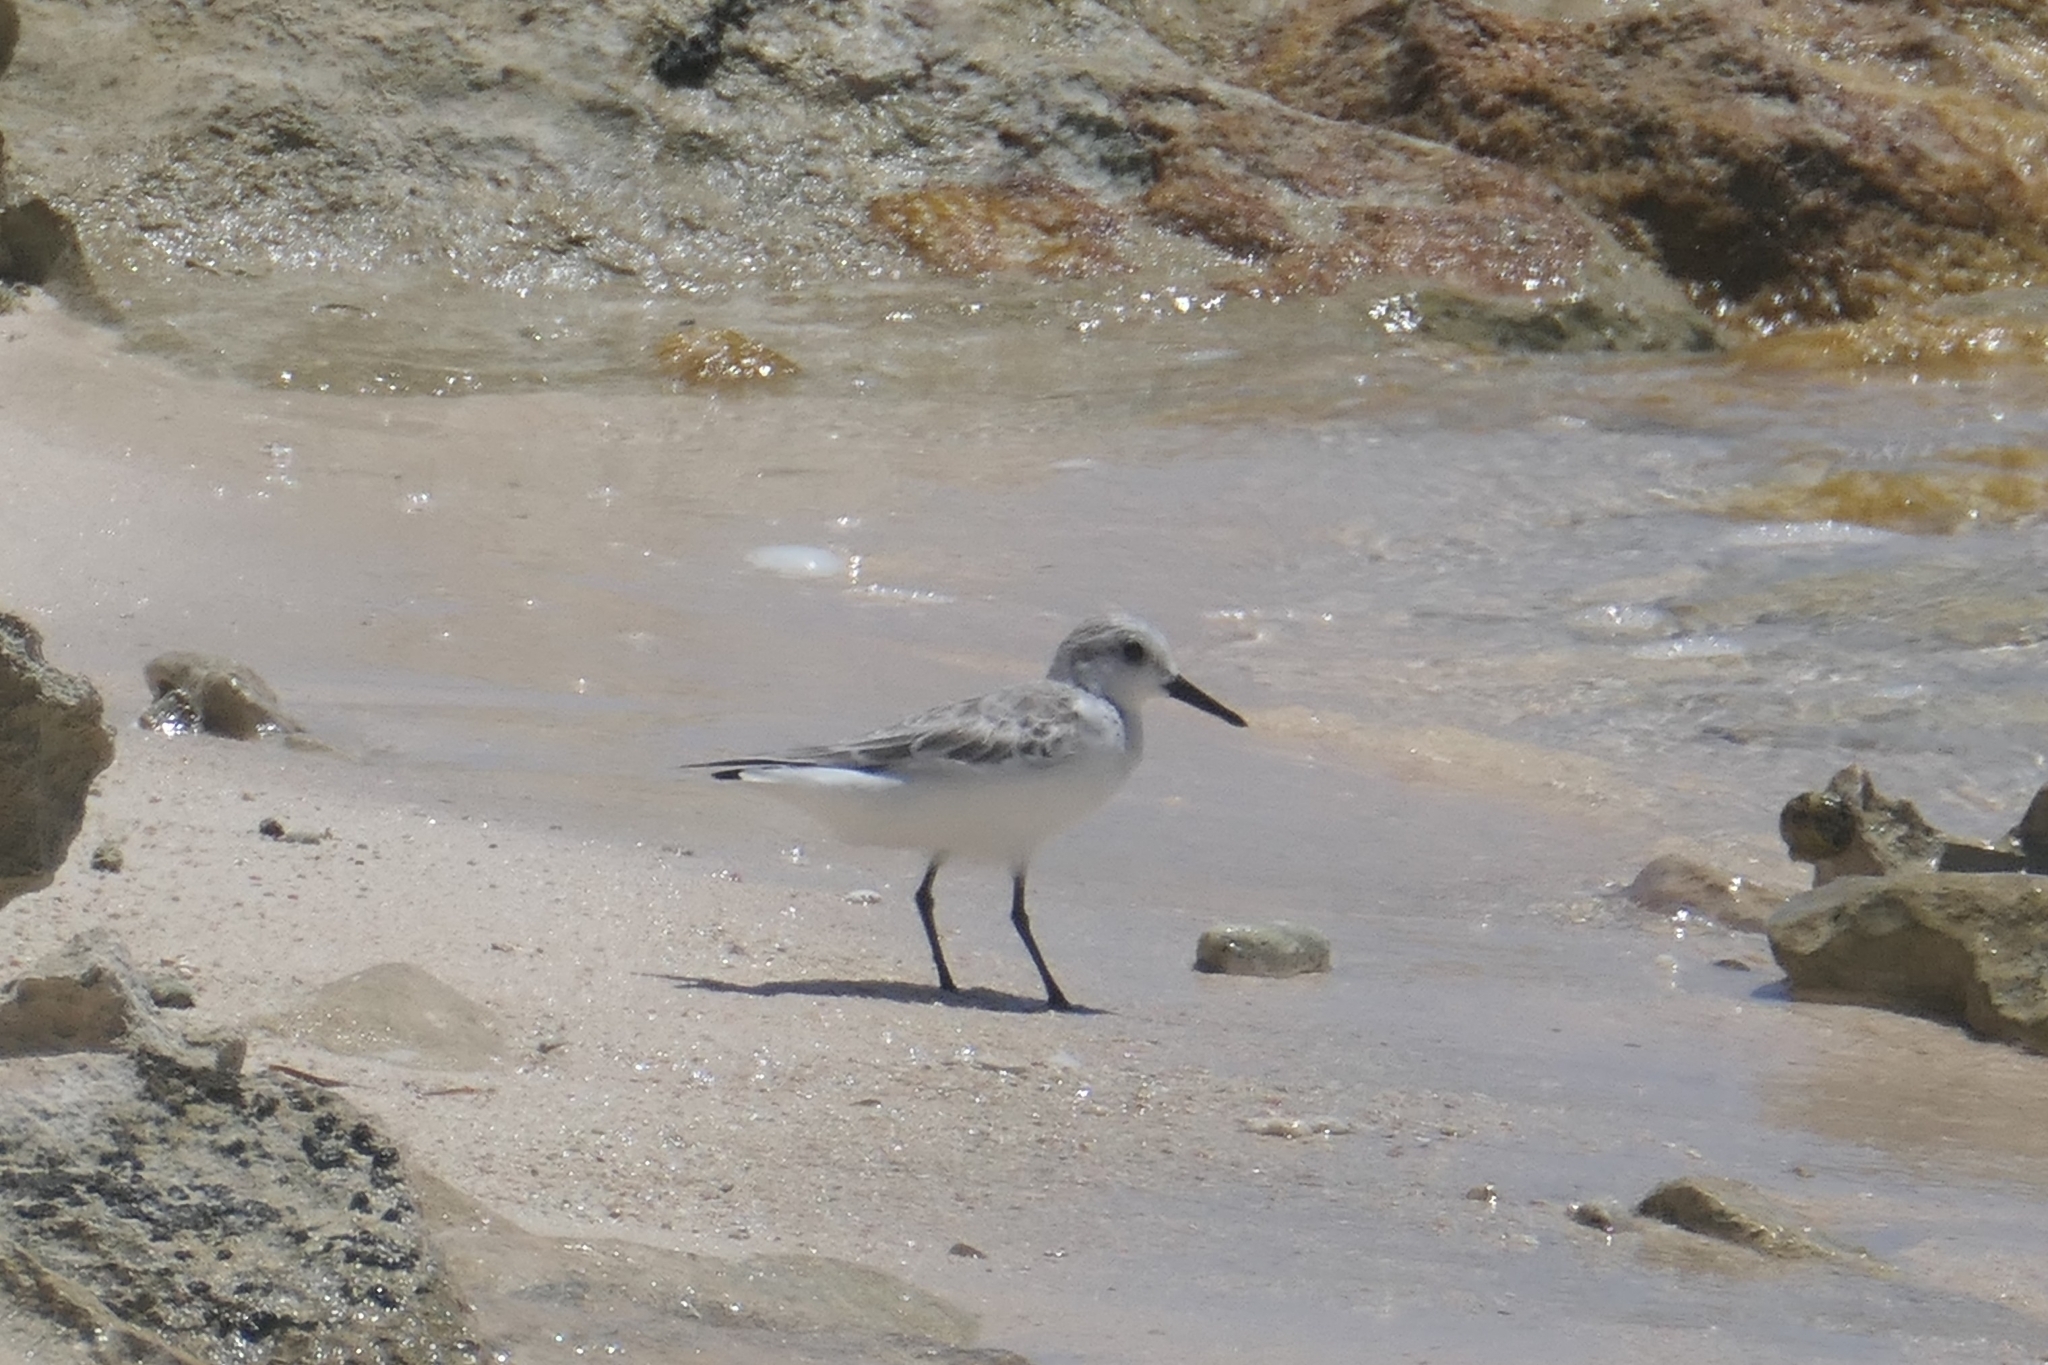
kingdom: Animalia
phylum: Chordata
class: Aves
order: Charadriiformes
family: Scolopacidae
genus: Calidris
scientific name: Calidris alba
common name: Sanderling
